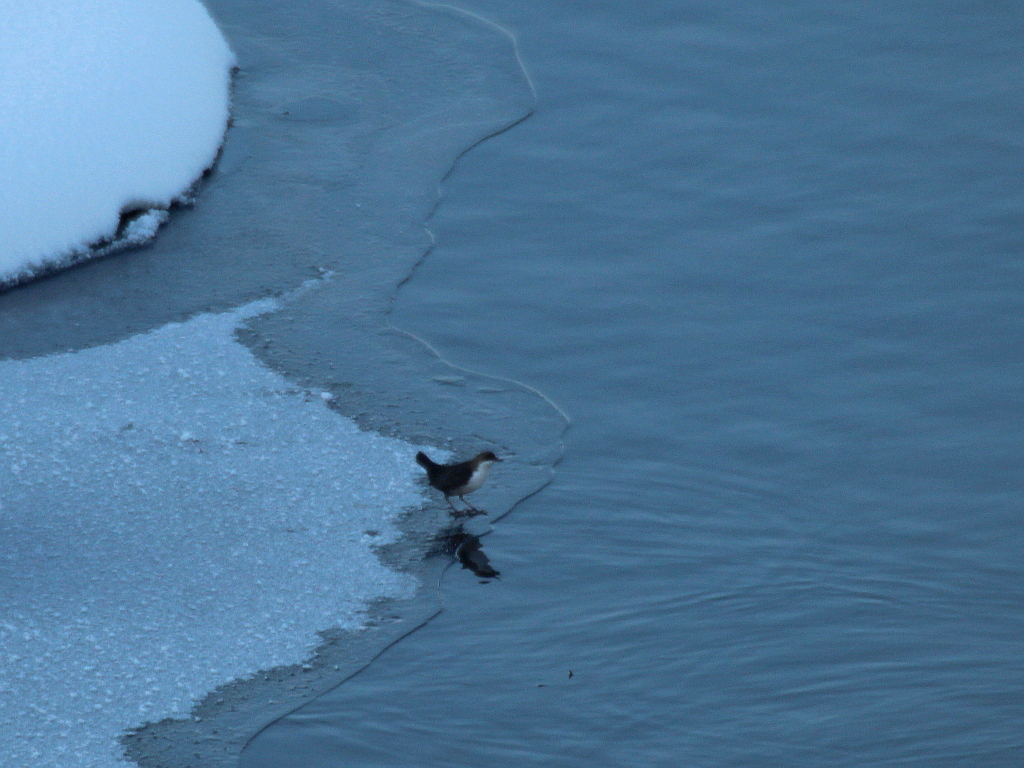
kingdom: Animalia
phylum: Chordata
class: Aves
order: Passeriformes
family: Cinclidae
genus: Cinclus
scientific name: Cinclus cinclus
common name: White-throated dipper
